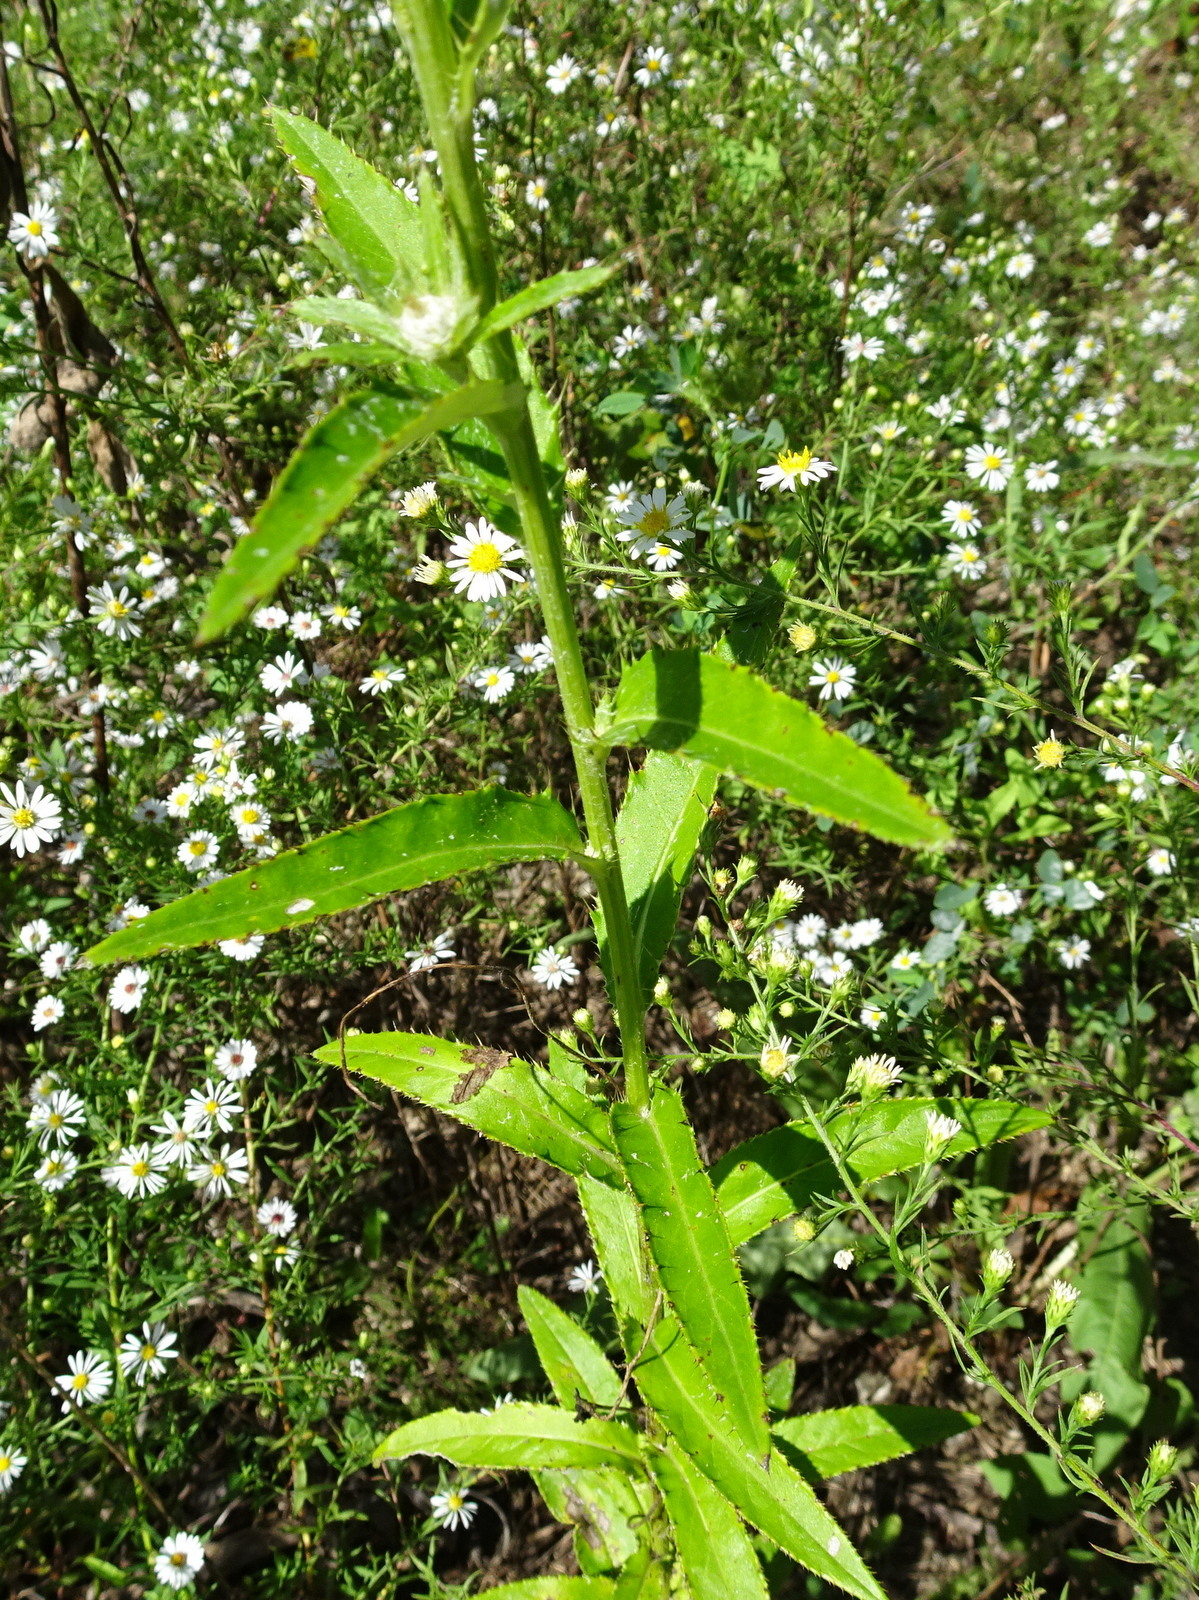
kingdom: Plantae
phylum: Tracheophyta
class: Magnoliopsida
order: Asterales
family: Asteraceae
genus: Cirsium
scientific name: Cirsium altissimum
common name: Roadside thistle
